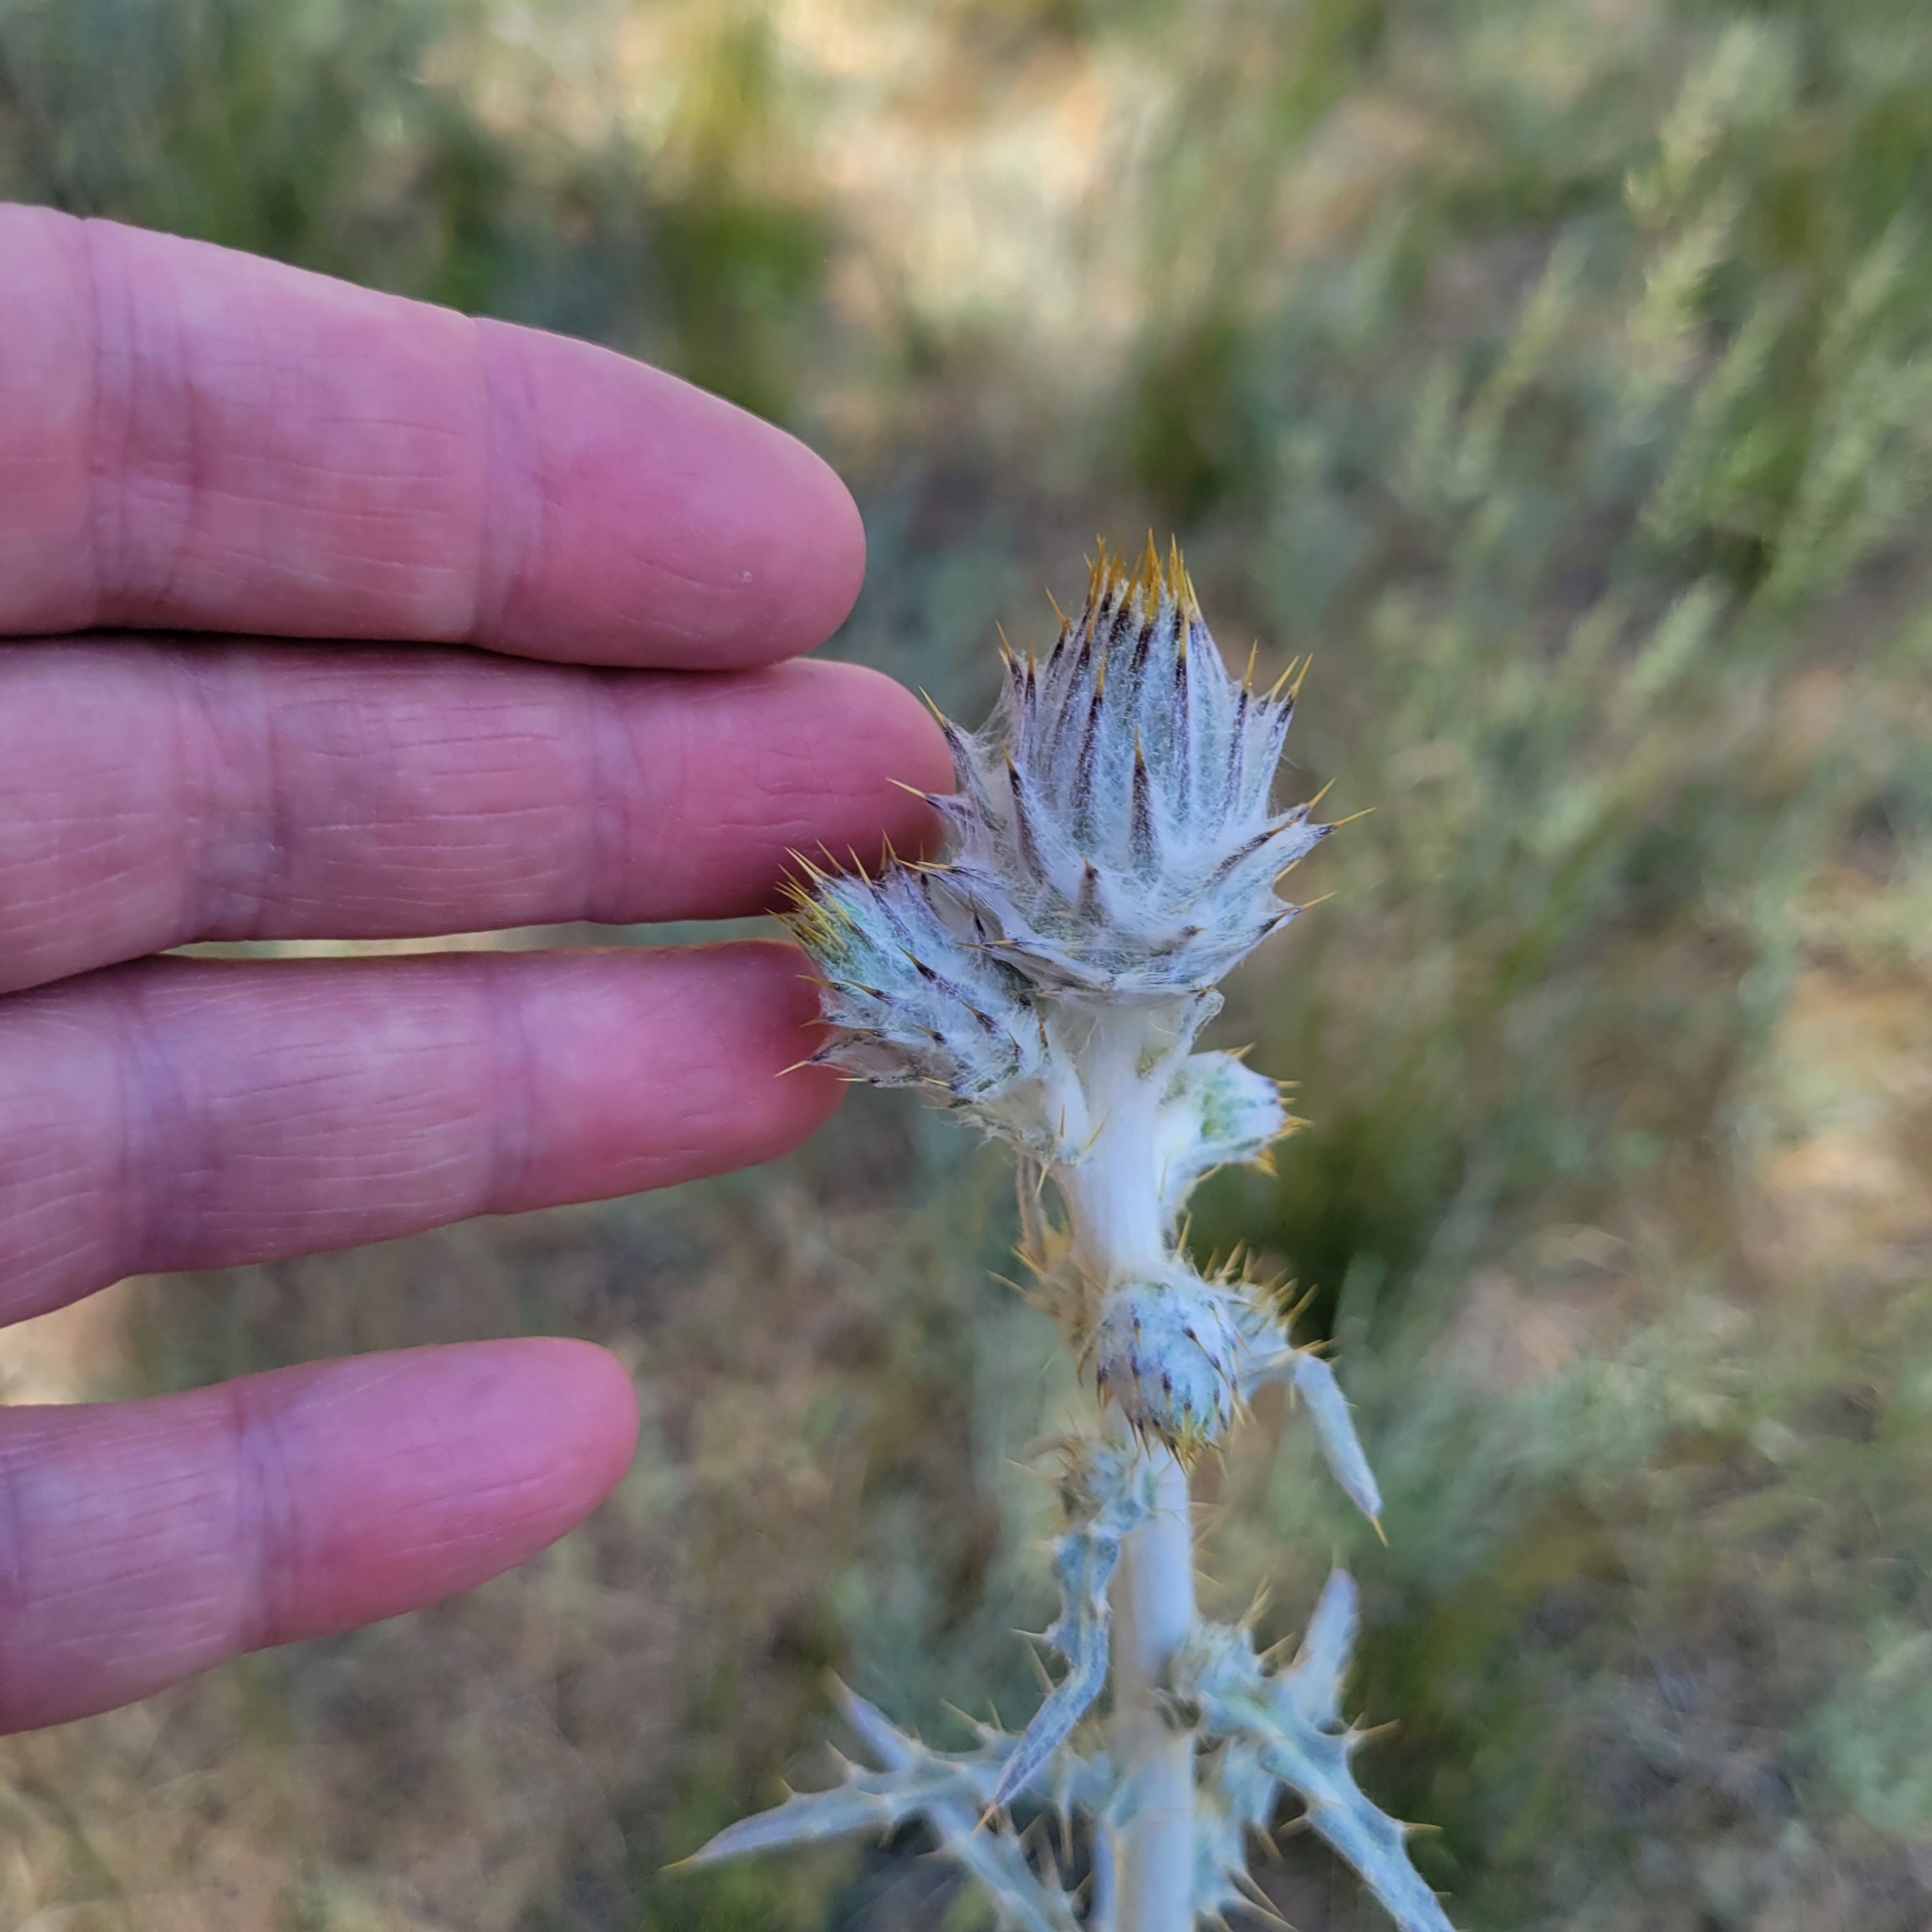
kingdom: Plantae
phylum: Tracheophyta
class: Magnoliopsida
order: Asterales
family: Asteraceae
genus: Cirsium
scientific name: Cirsium occidentale
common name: Western thistle
